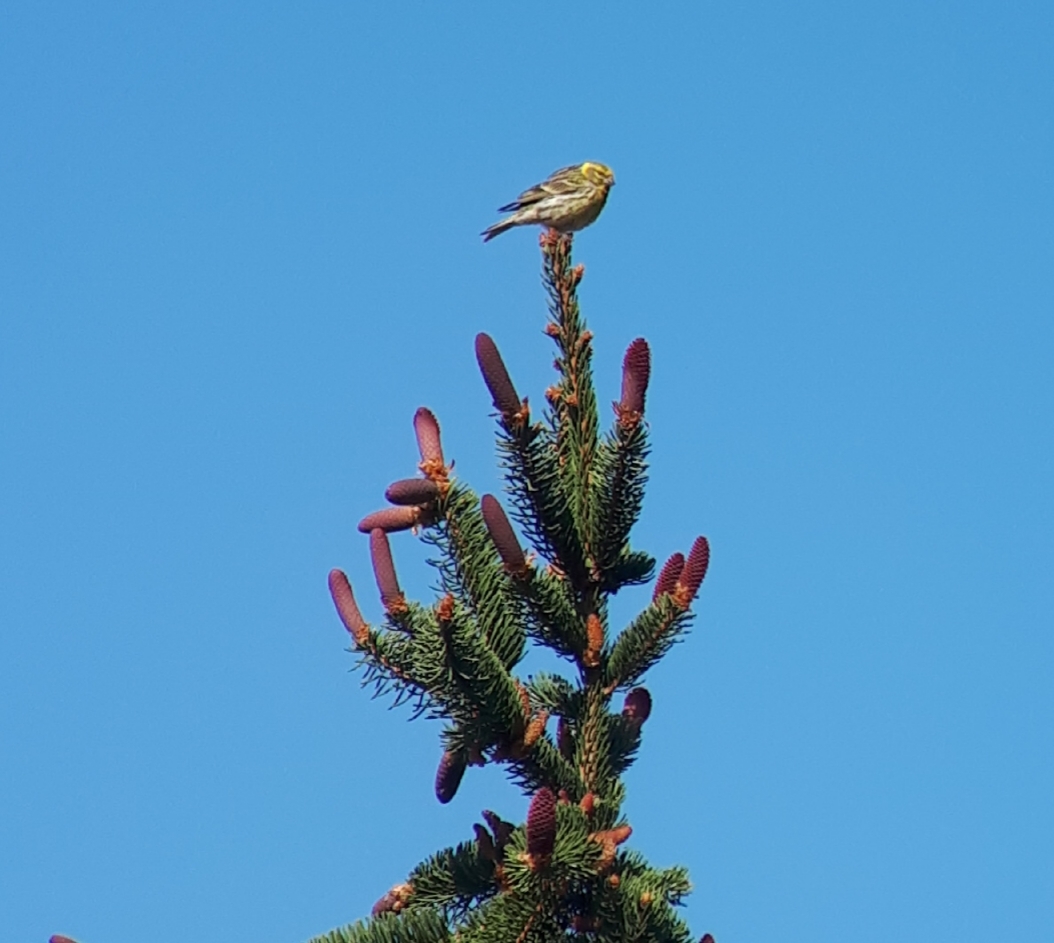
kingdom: Animalia
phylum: Chordata
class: Aves
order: Passeriformes
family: Fringillidae
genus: Serinus
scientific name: Serinus serinus
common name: European serin
